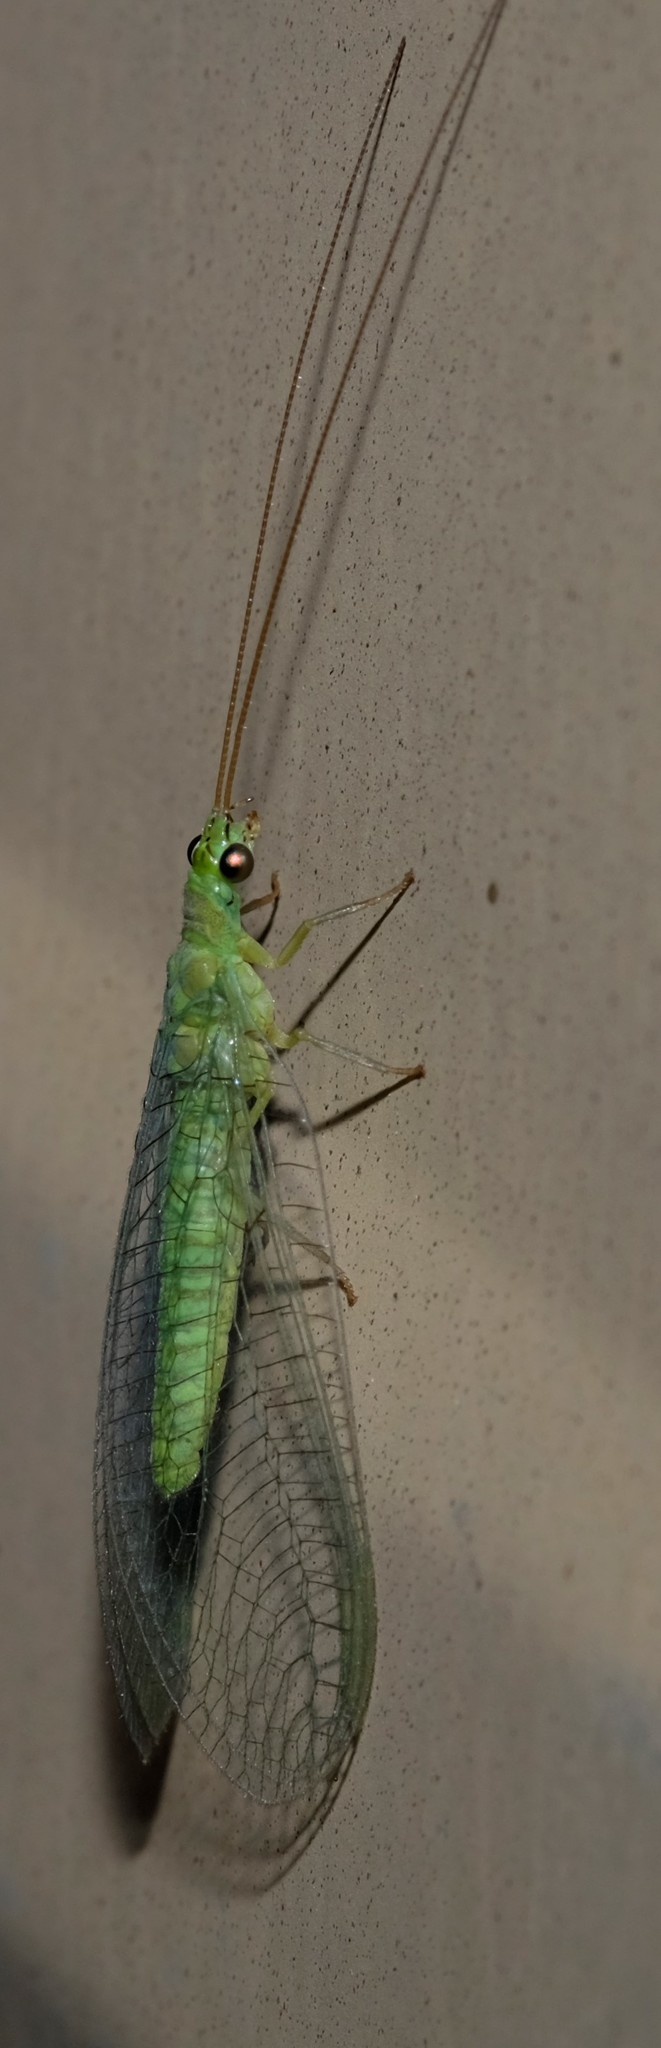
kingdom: Animalia
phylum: Arthropoda
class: Insecta
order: Neuroptera
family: Chrysopidae
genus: Mallada
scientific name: Mallada signatus
